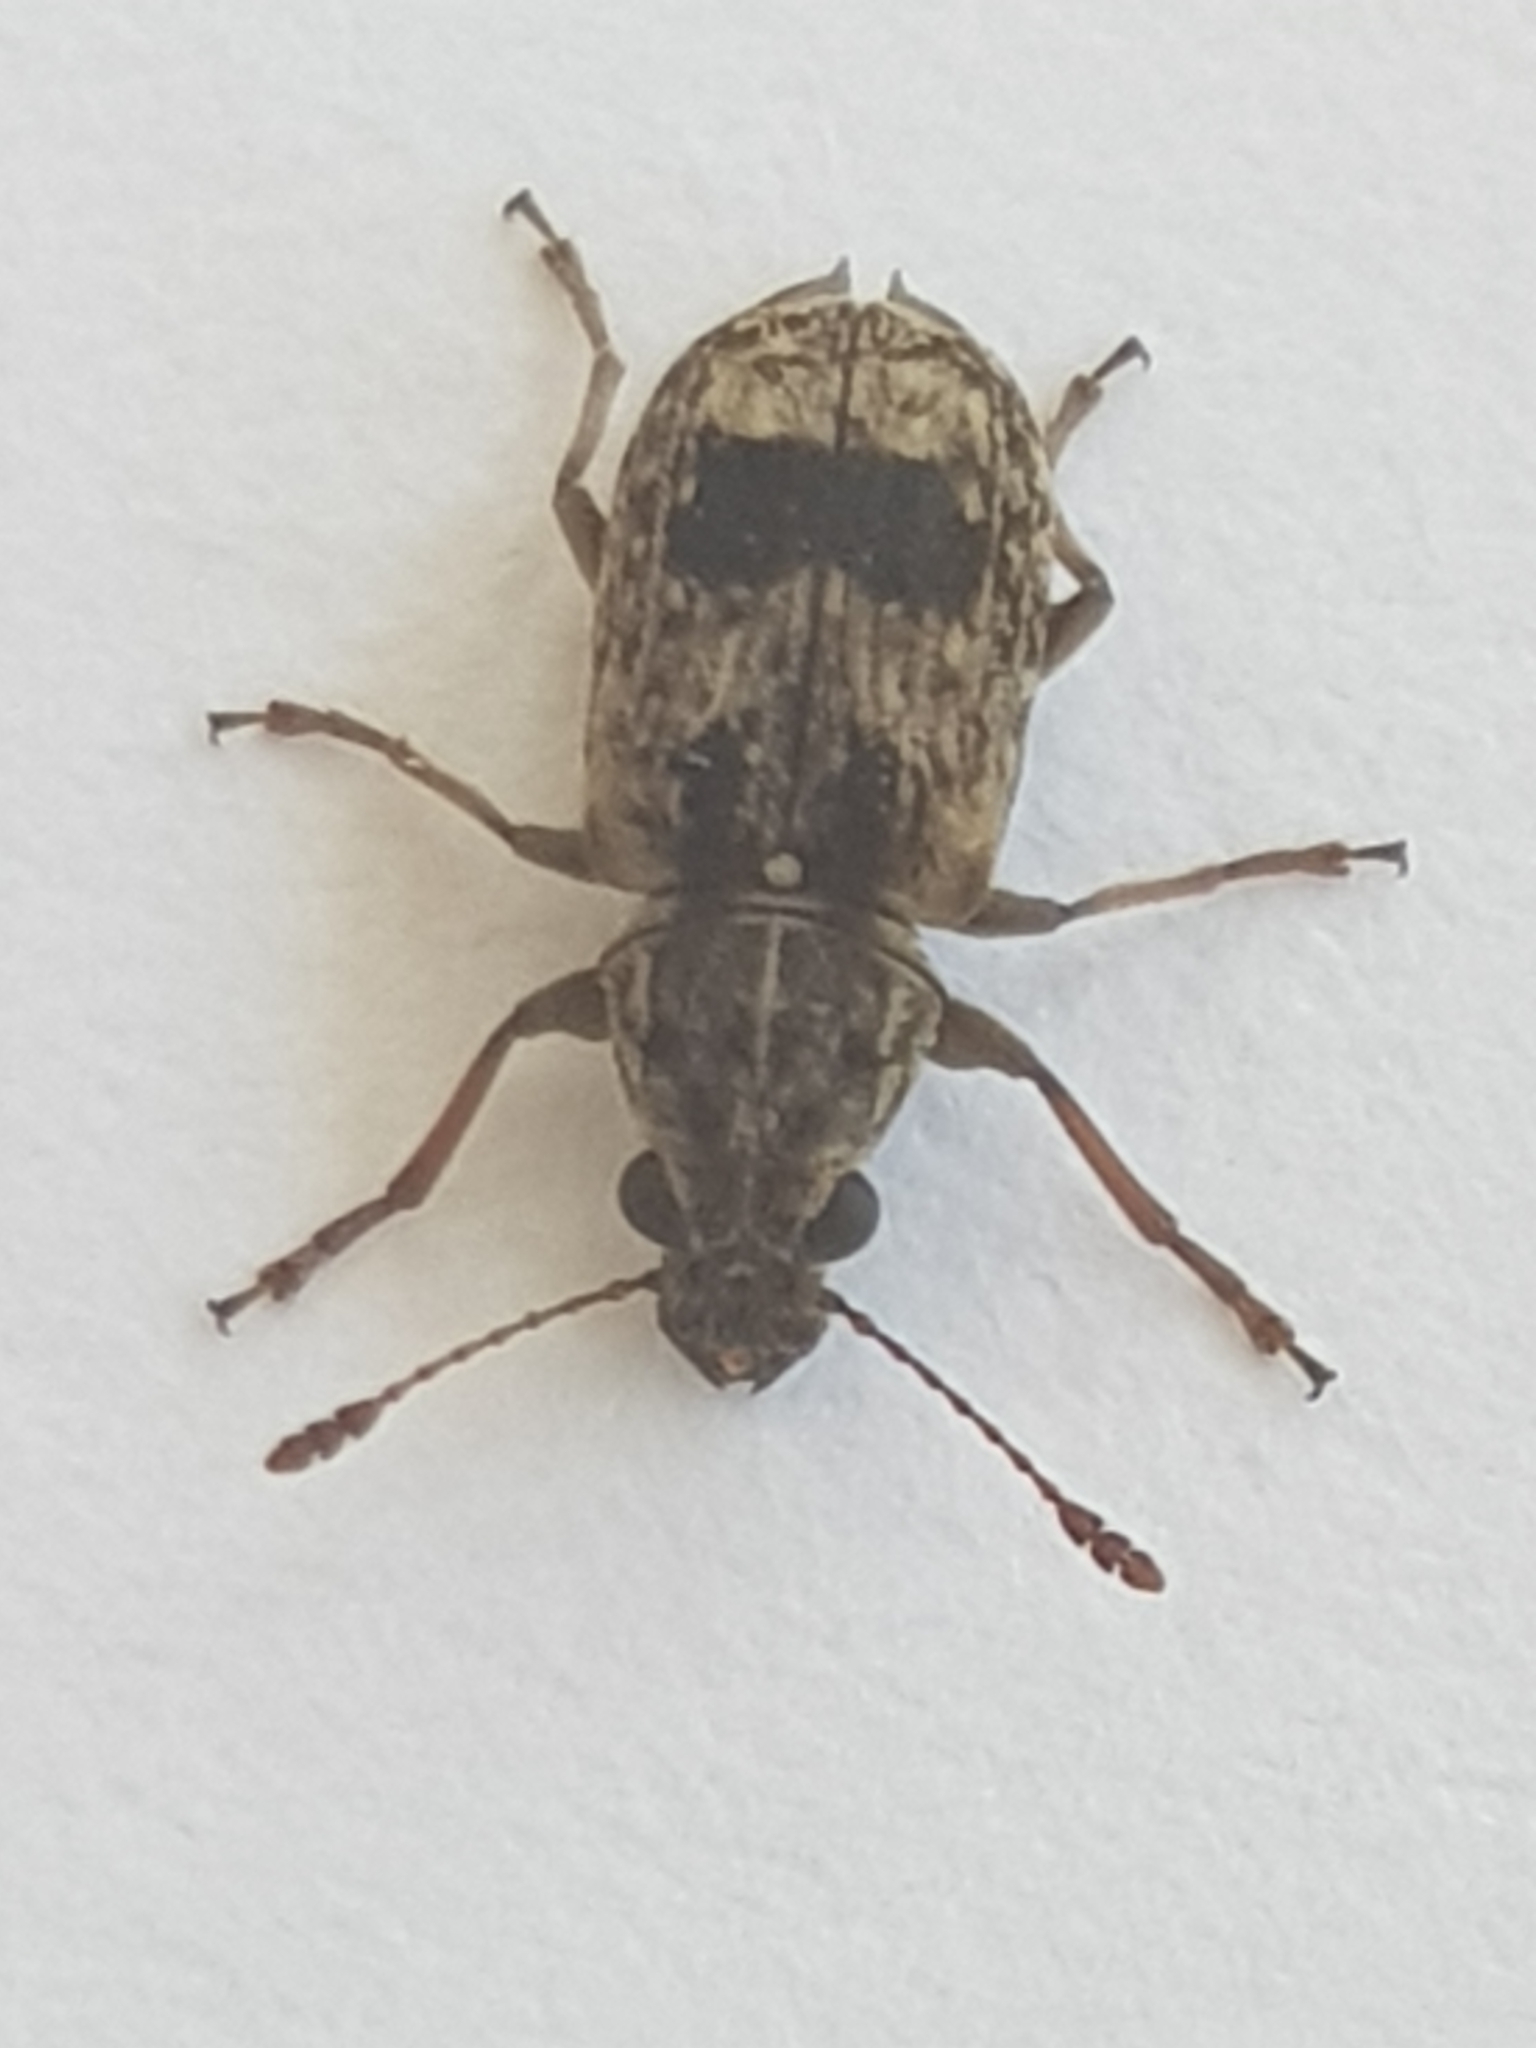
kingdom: Animalia
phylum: Arthropoda
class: Insecta
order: Coleoptera
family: Anthribidae
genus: Cacephatus
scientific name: Cacephatus
